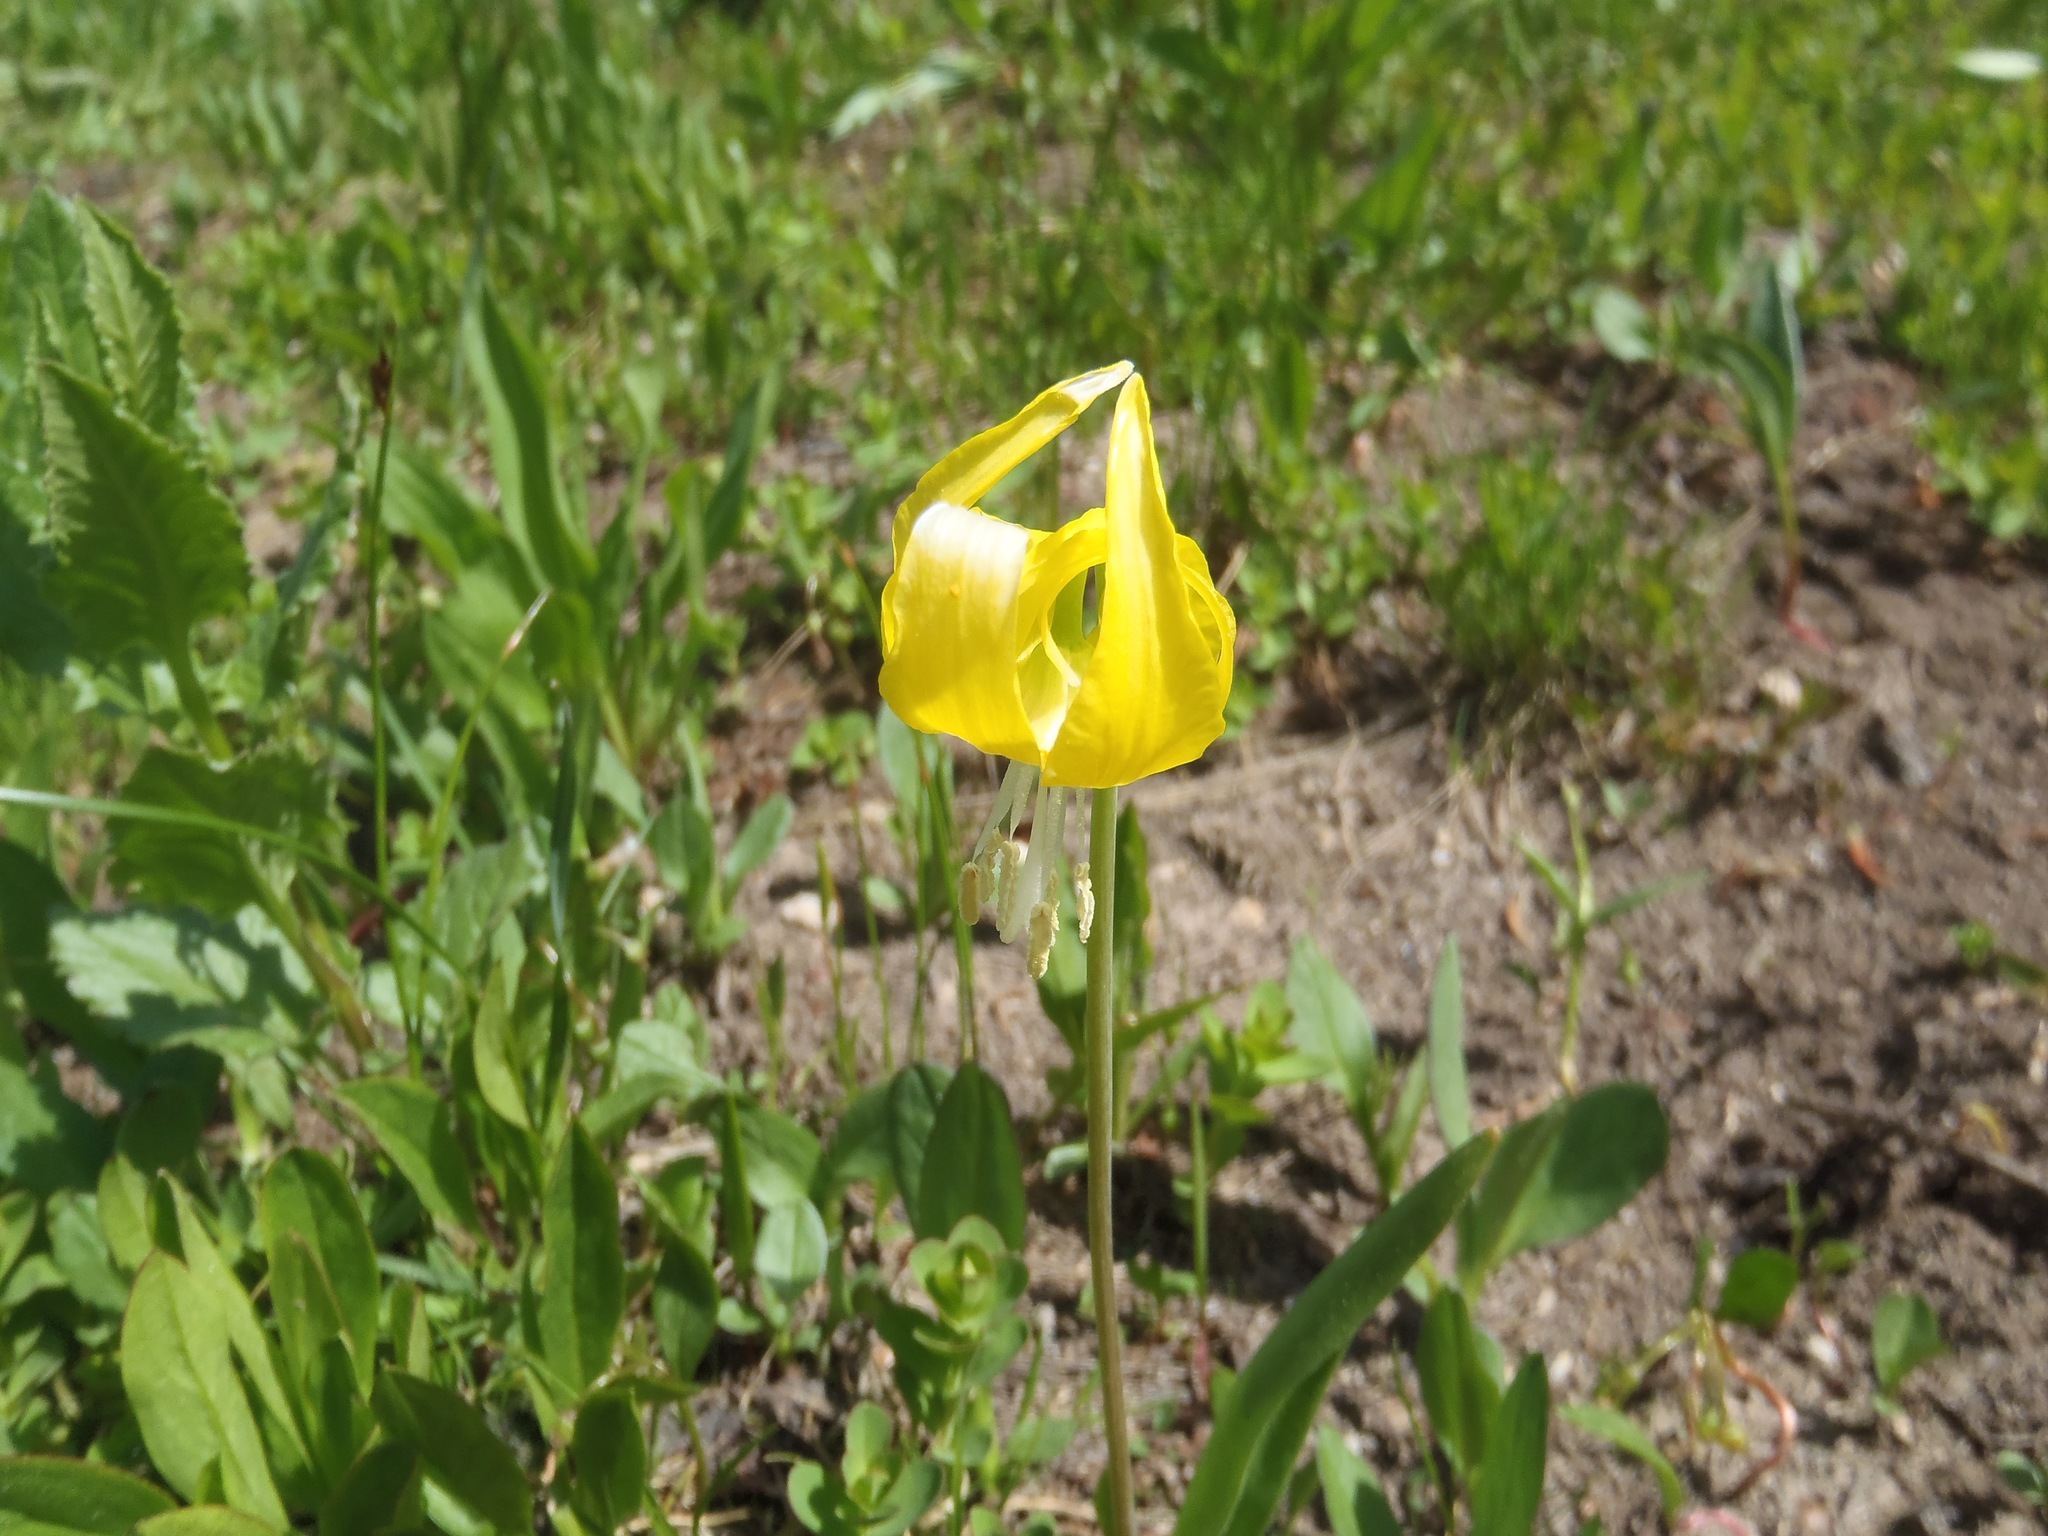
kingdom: Plantae
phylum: Tracheophyta
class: Liliopsida
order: Liliales
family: Liliaceae
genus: Erythronium
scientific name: Erythronium grandiflorum
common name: Avalanche-lily
